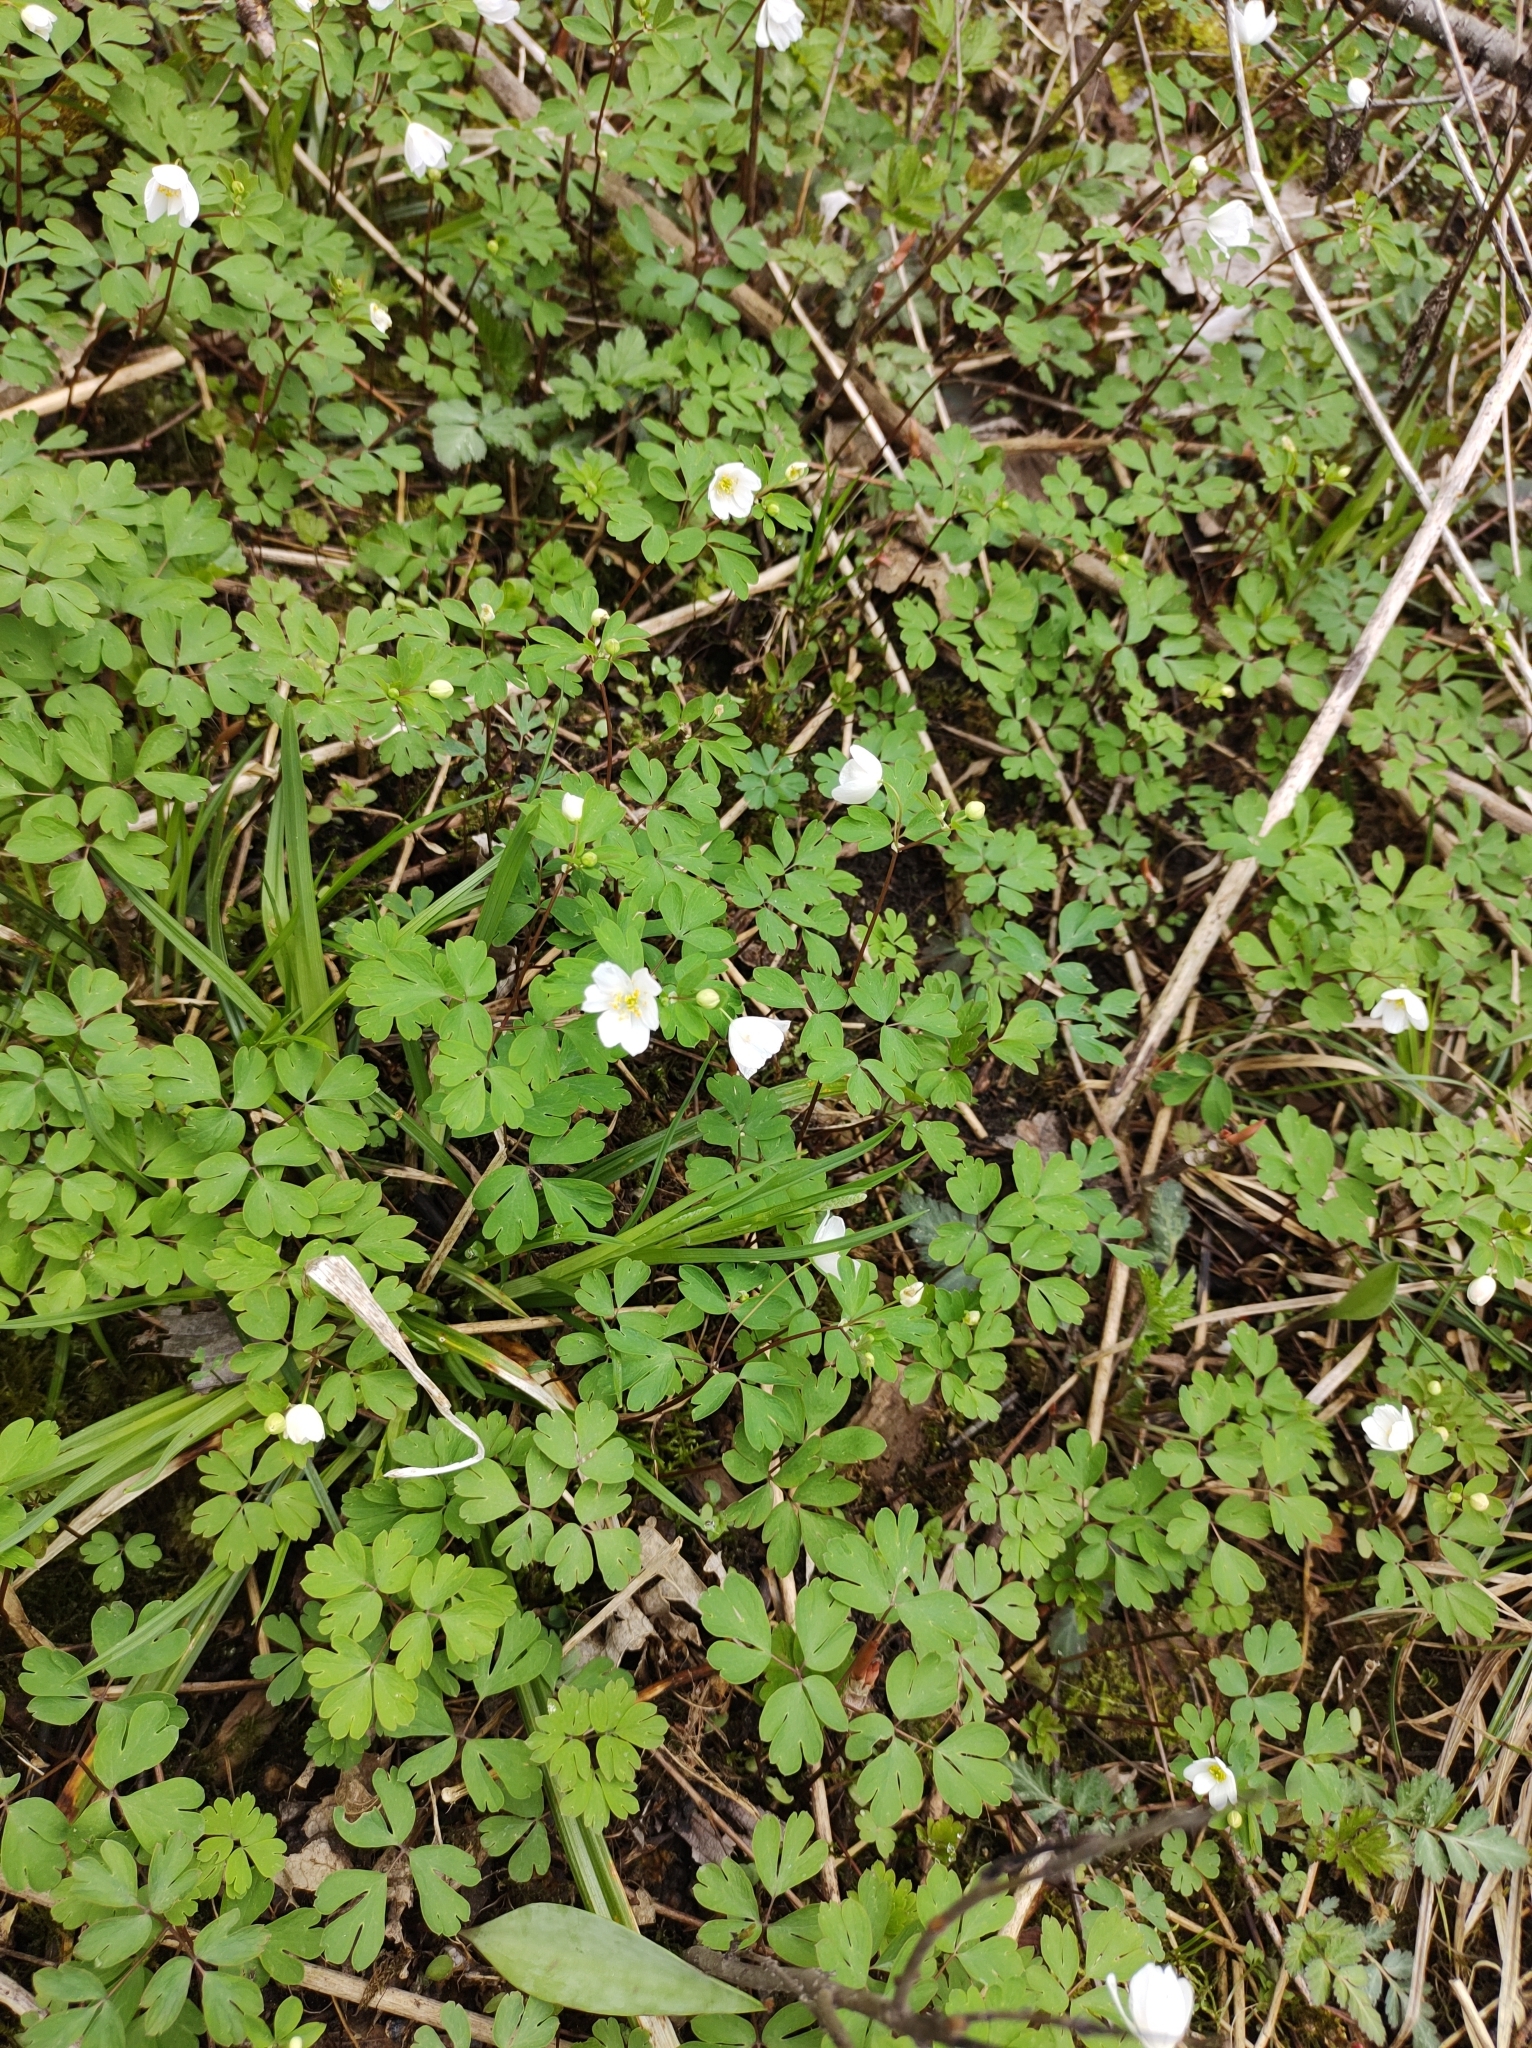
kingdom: Plantae
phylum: Tracheophyta
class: Magnoliopsida
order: Ranunculales
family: Ranunculaceae
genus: Enemion
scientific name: Enemion biternatum
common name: Eastern false rue-anemone
